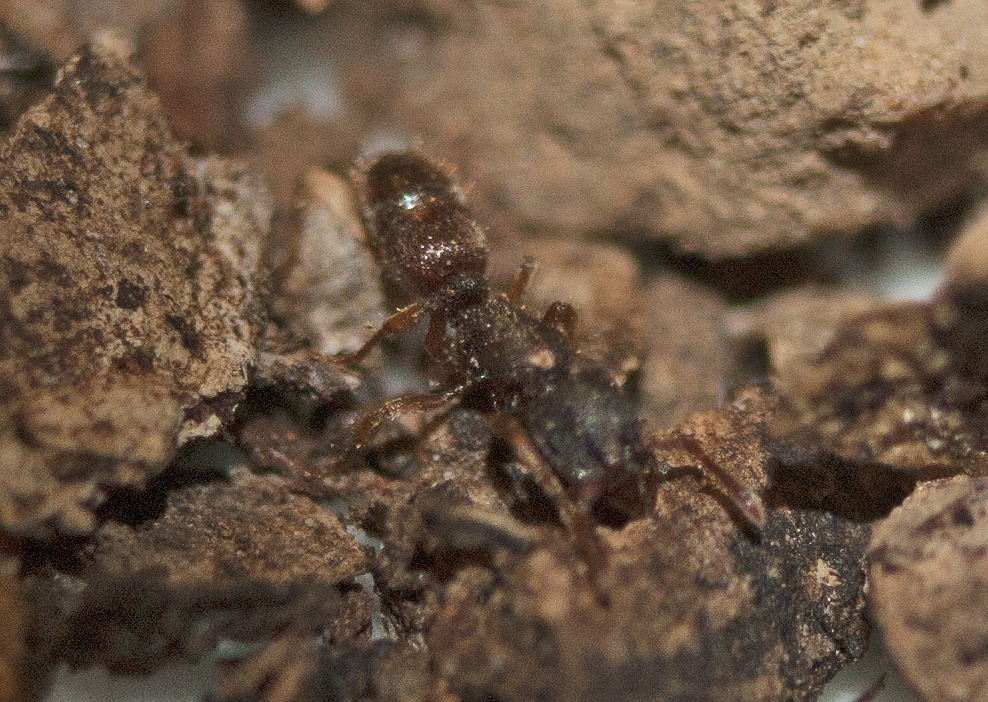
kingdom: Animalia
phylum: Arthropoda
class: Insecta
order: Hymenoptera
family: Formicidae
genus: Heteroponera
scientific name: Heteroponera imbellis
